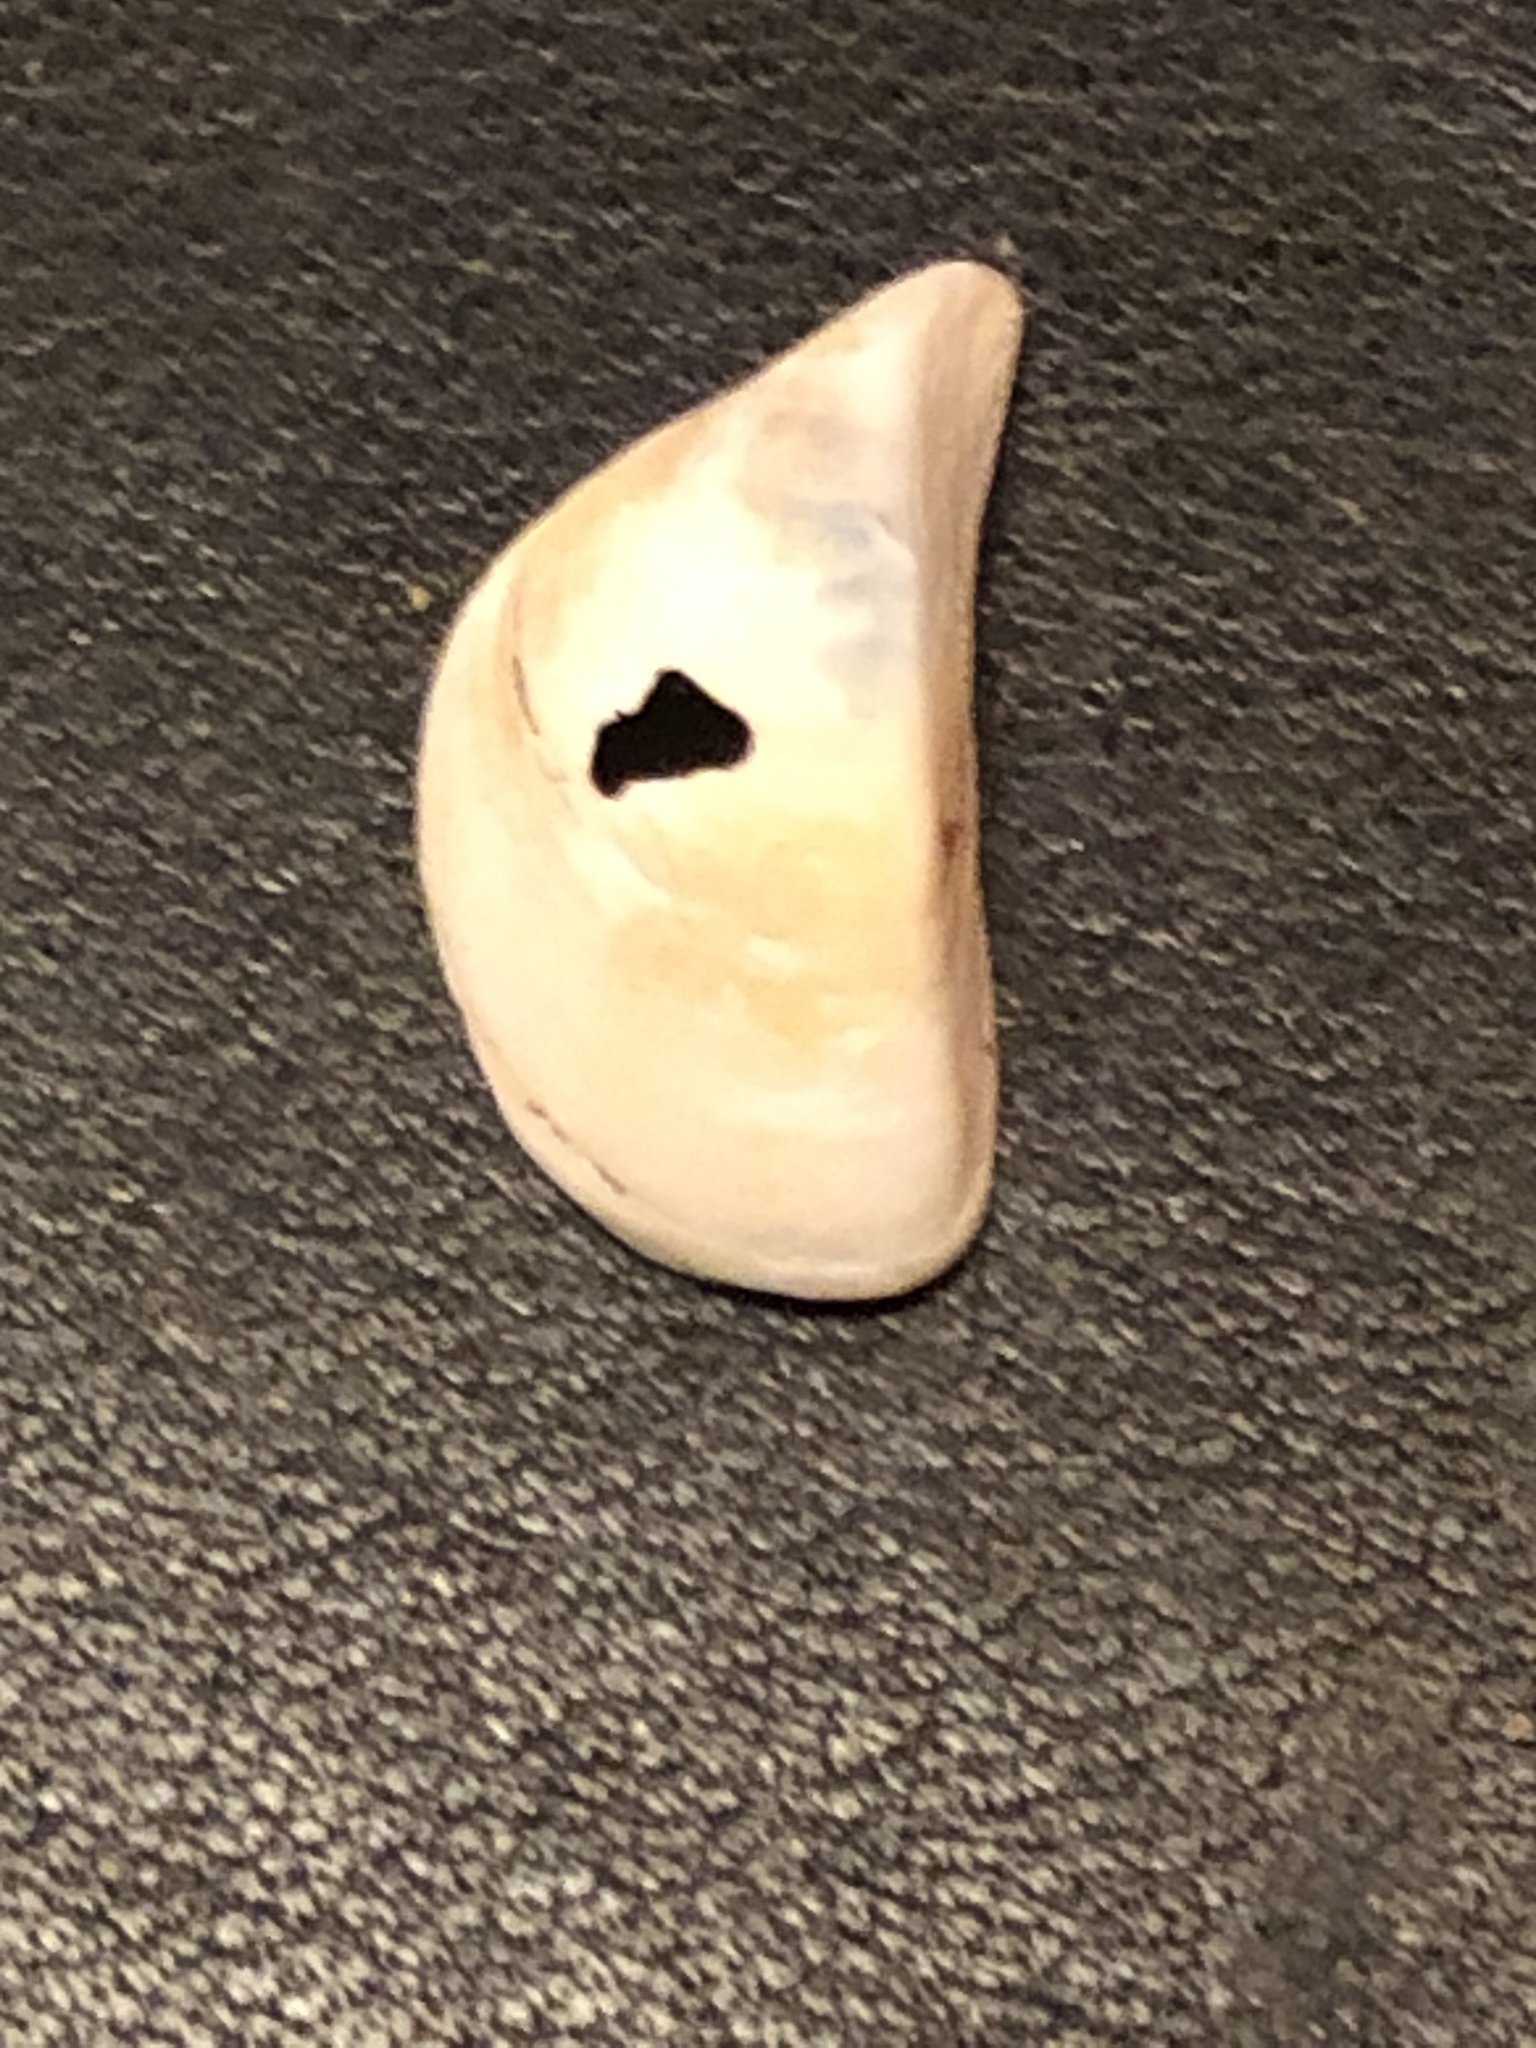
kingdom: Animalia
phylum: Mollusca
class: Bivalvia
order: Myida
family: Dreissenidae
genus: Dreissena
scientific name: Dreissena polymorpha
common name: Zebra mussel
